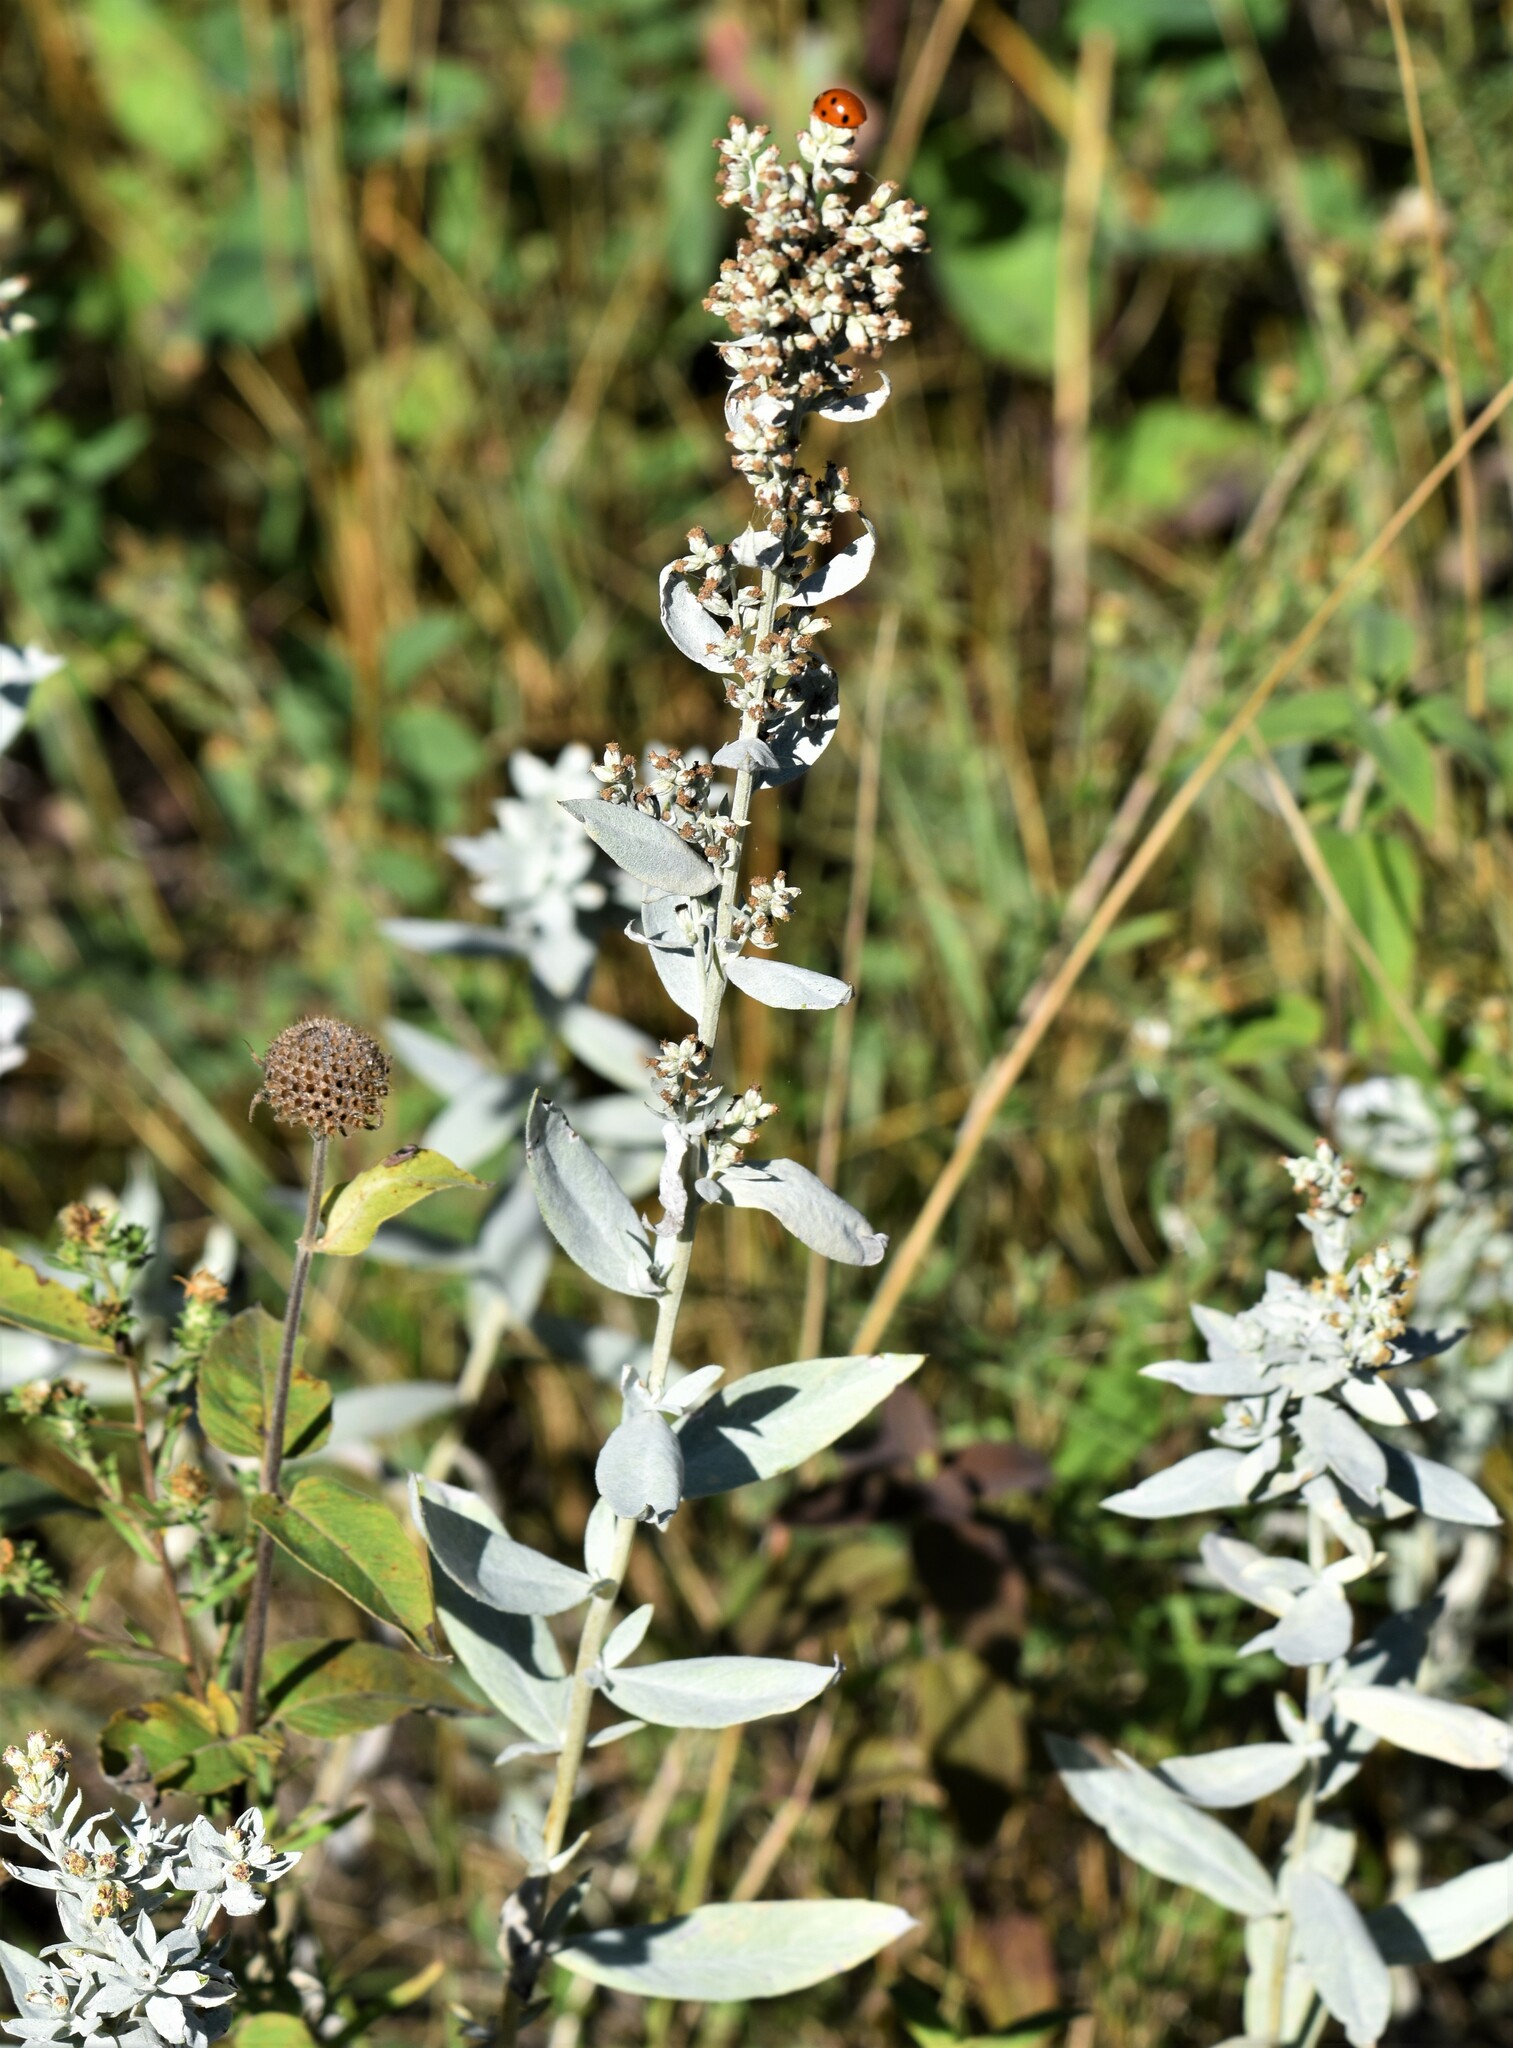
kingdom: Plantae
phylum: Tracheophyta
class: Magnoliopsida
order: Asterales
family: Asteraceae
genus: Artemisia
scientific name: Artemisia ludoviciana
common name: Western mugwort
